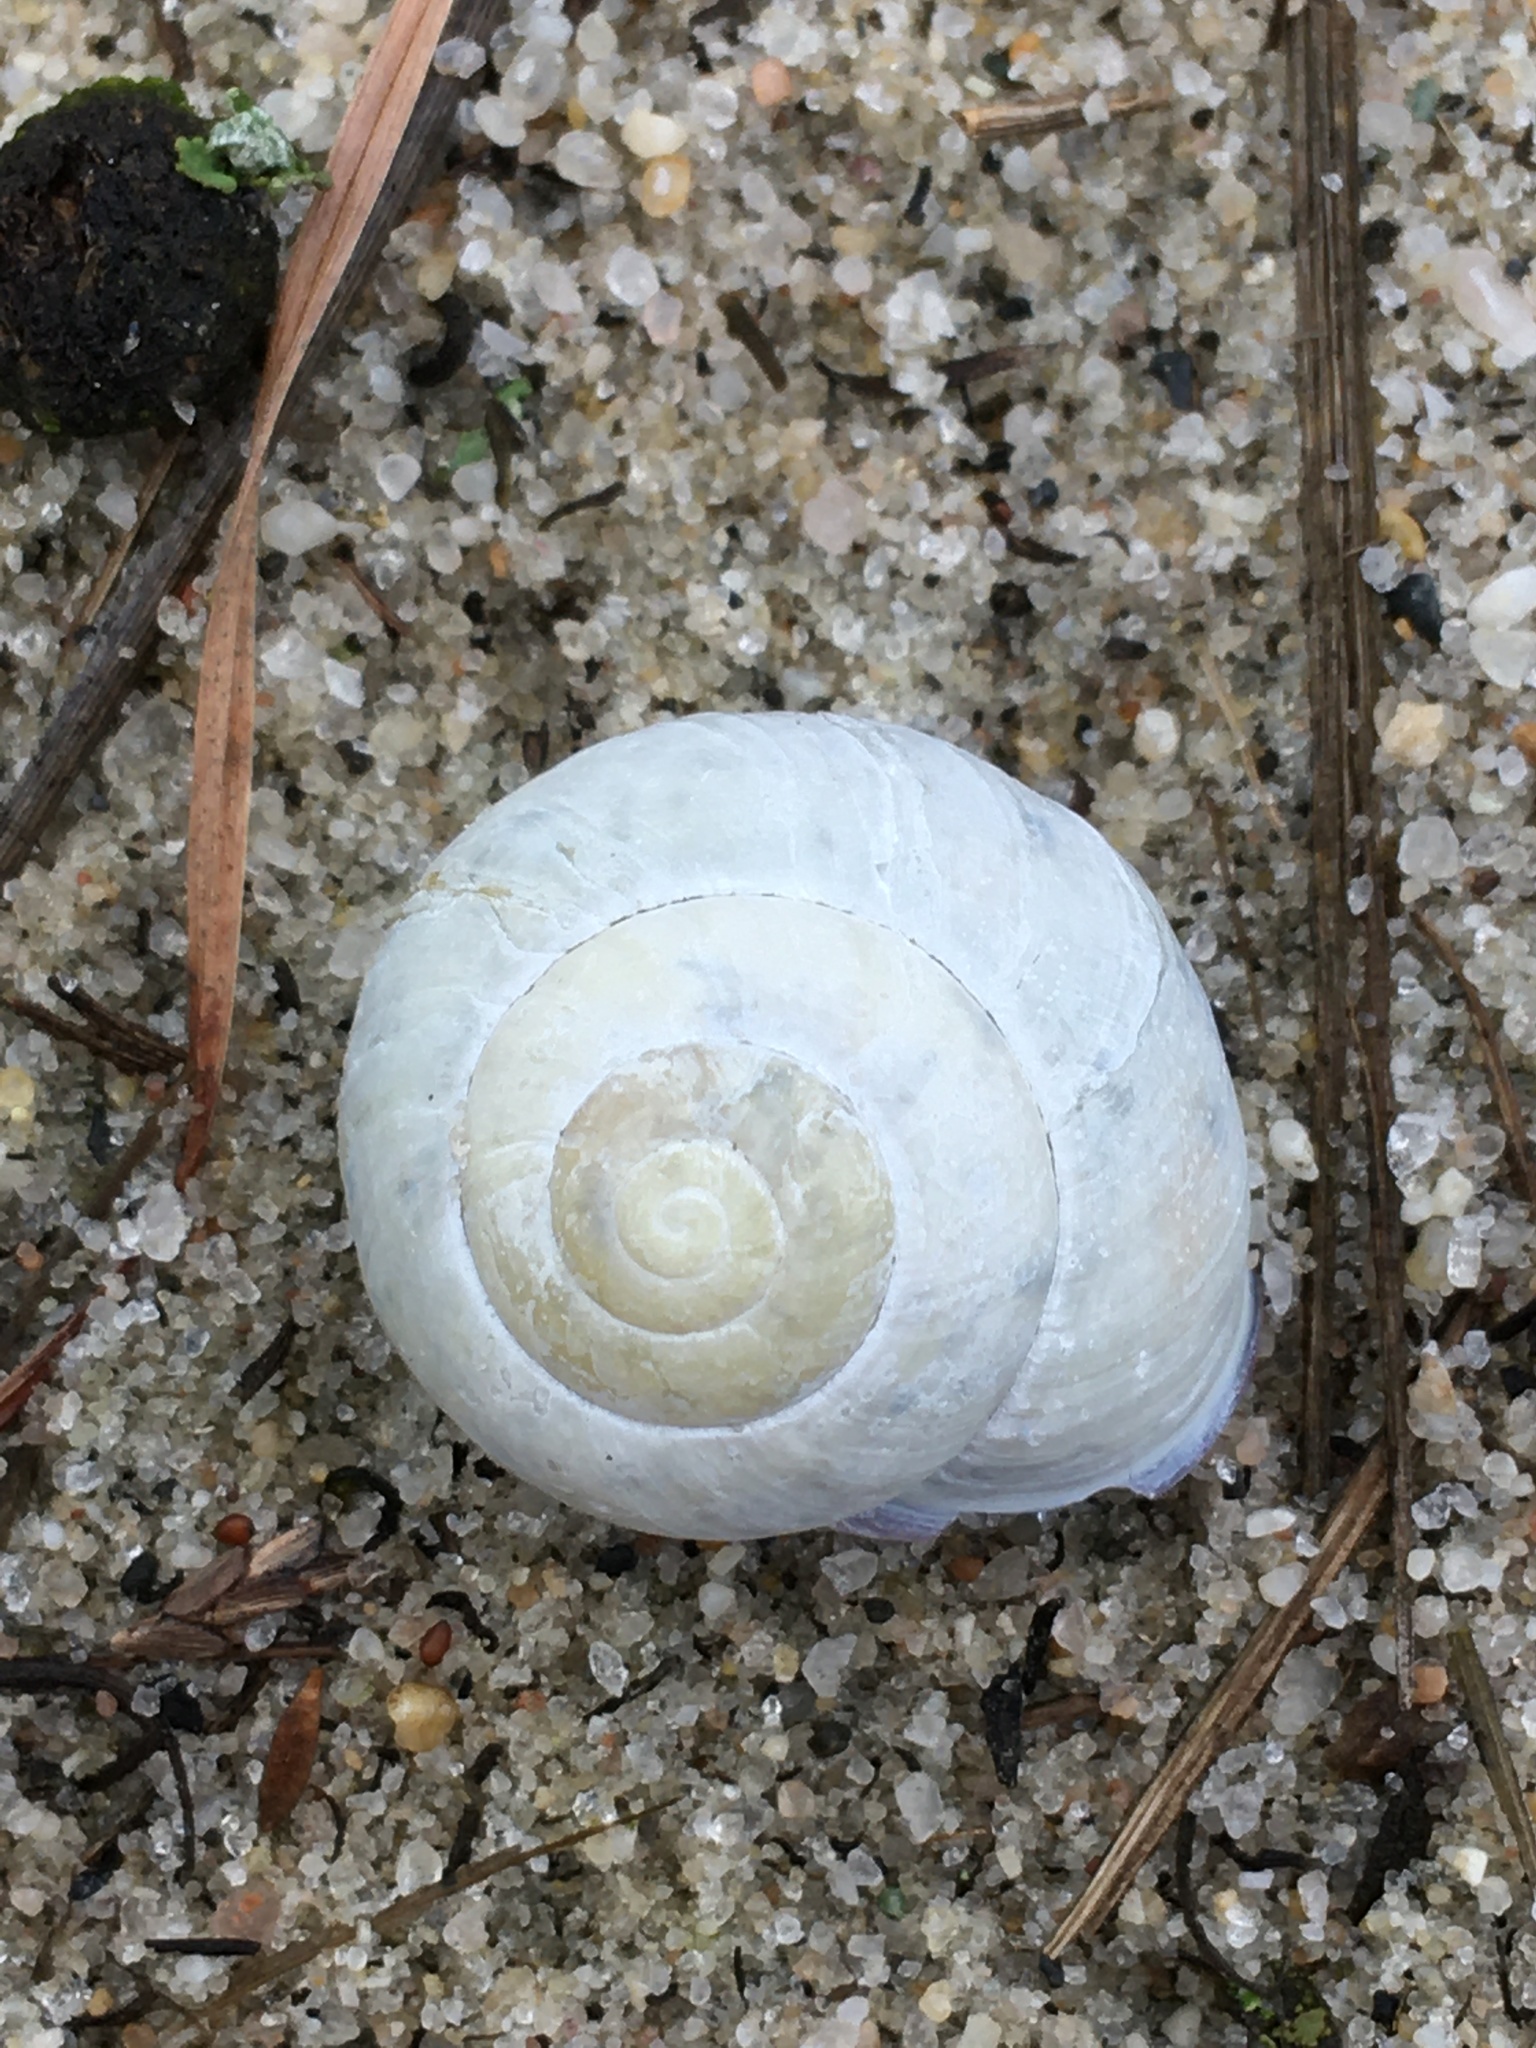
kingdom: Animalia
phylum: Mollusca
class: Gastropoda
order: Stylommatophora
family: Helicidae
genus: Cepaea
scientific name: Cepaea nemoralis
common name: Grovesnail
